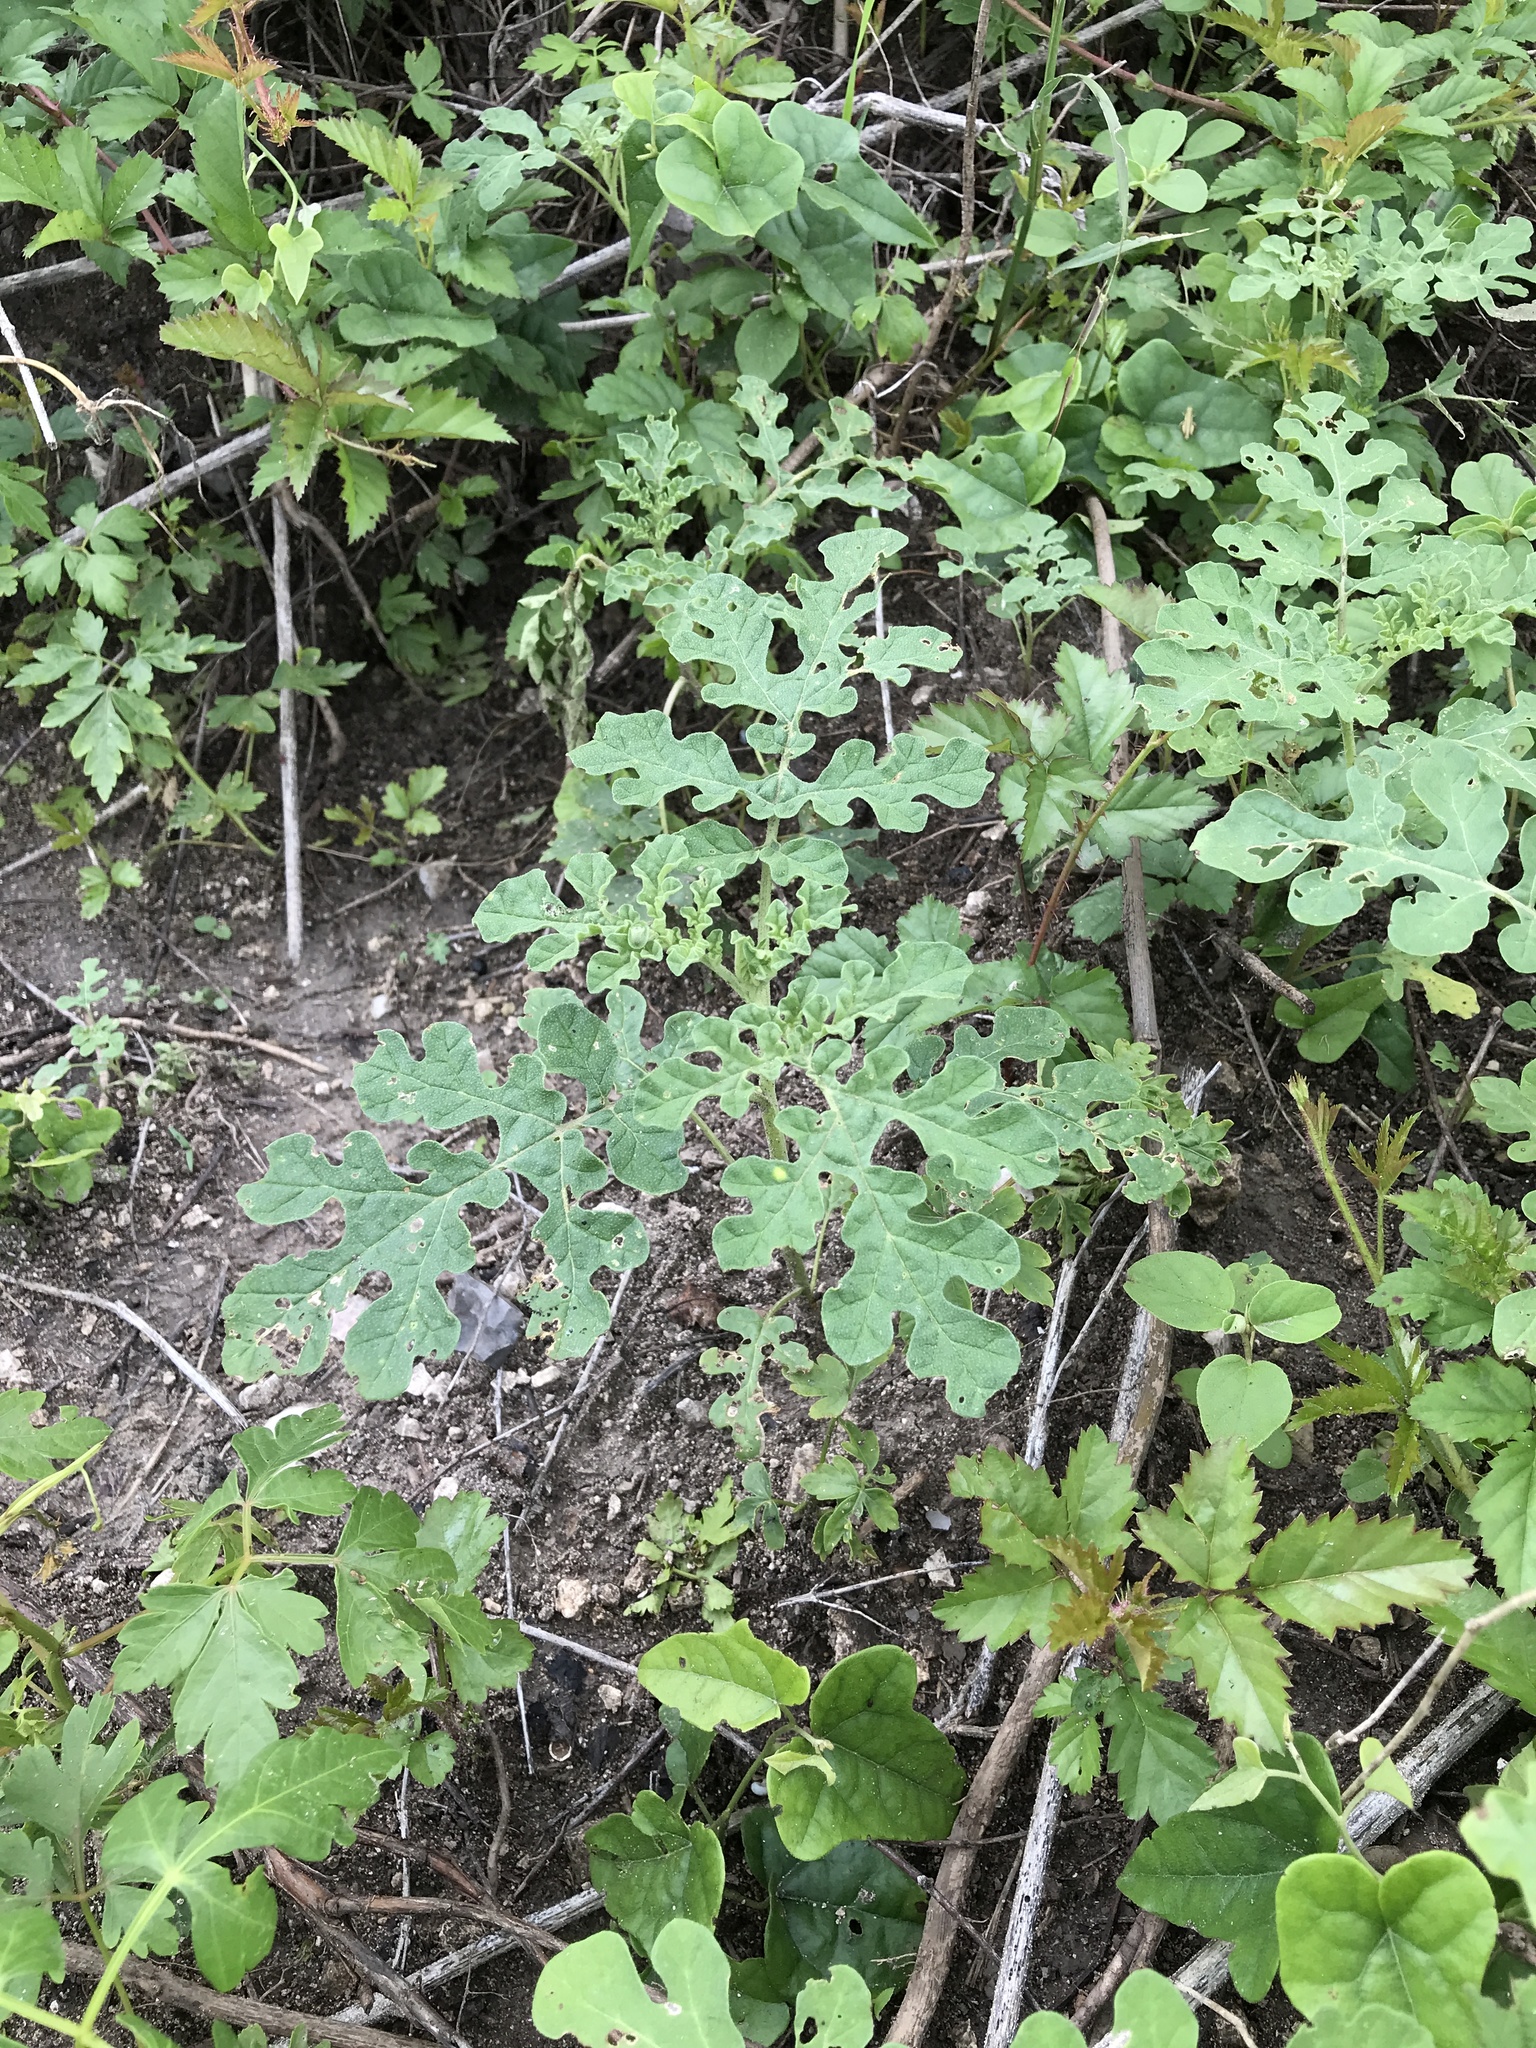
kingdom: Plantae
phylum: Tracheophyta
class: Magnoliopsida
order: Solanales
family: Solanaceae
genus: Solanum
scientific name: Solanum angustifolium
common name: Buffalobur nightshade
